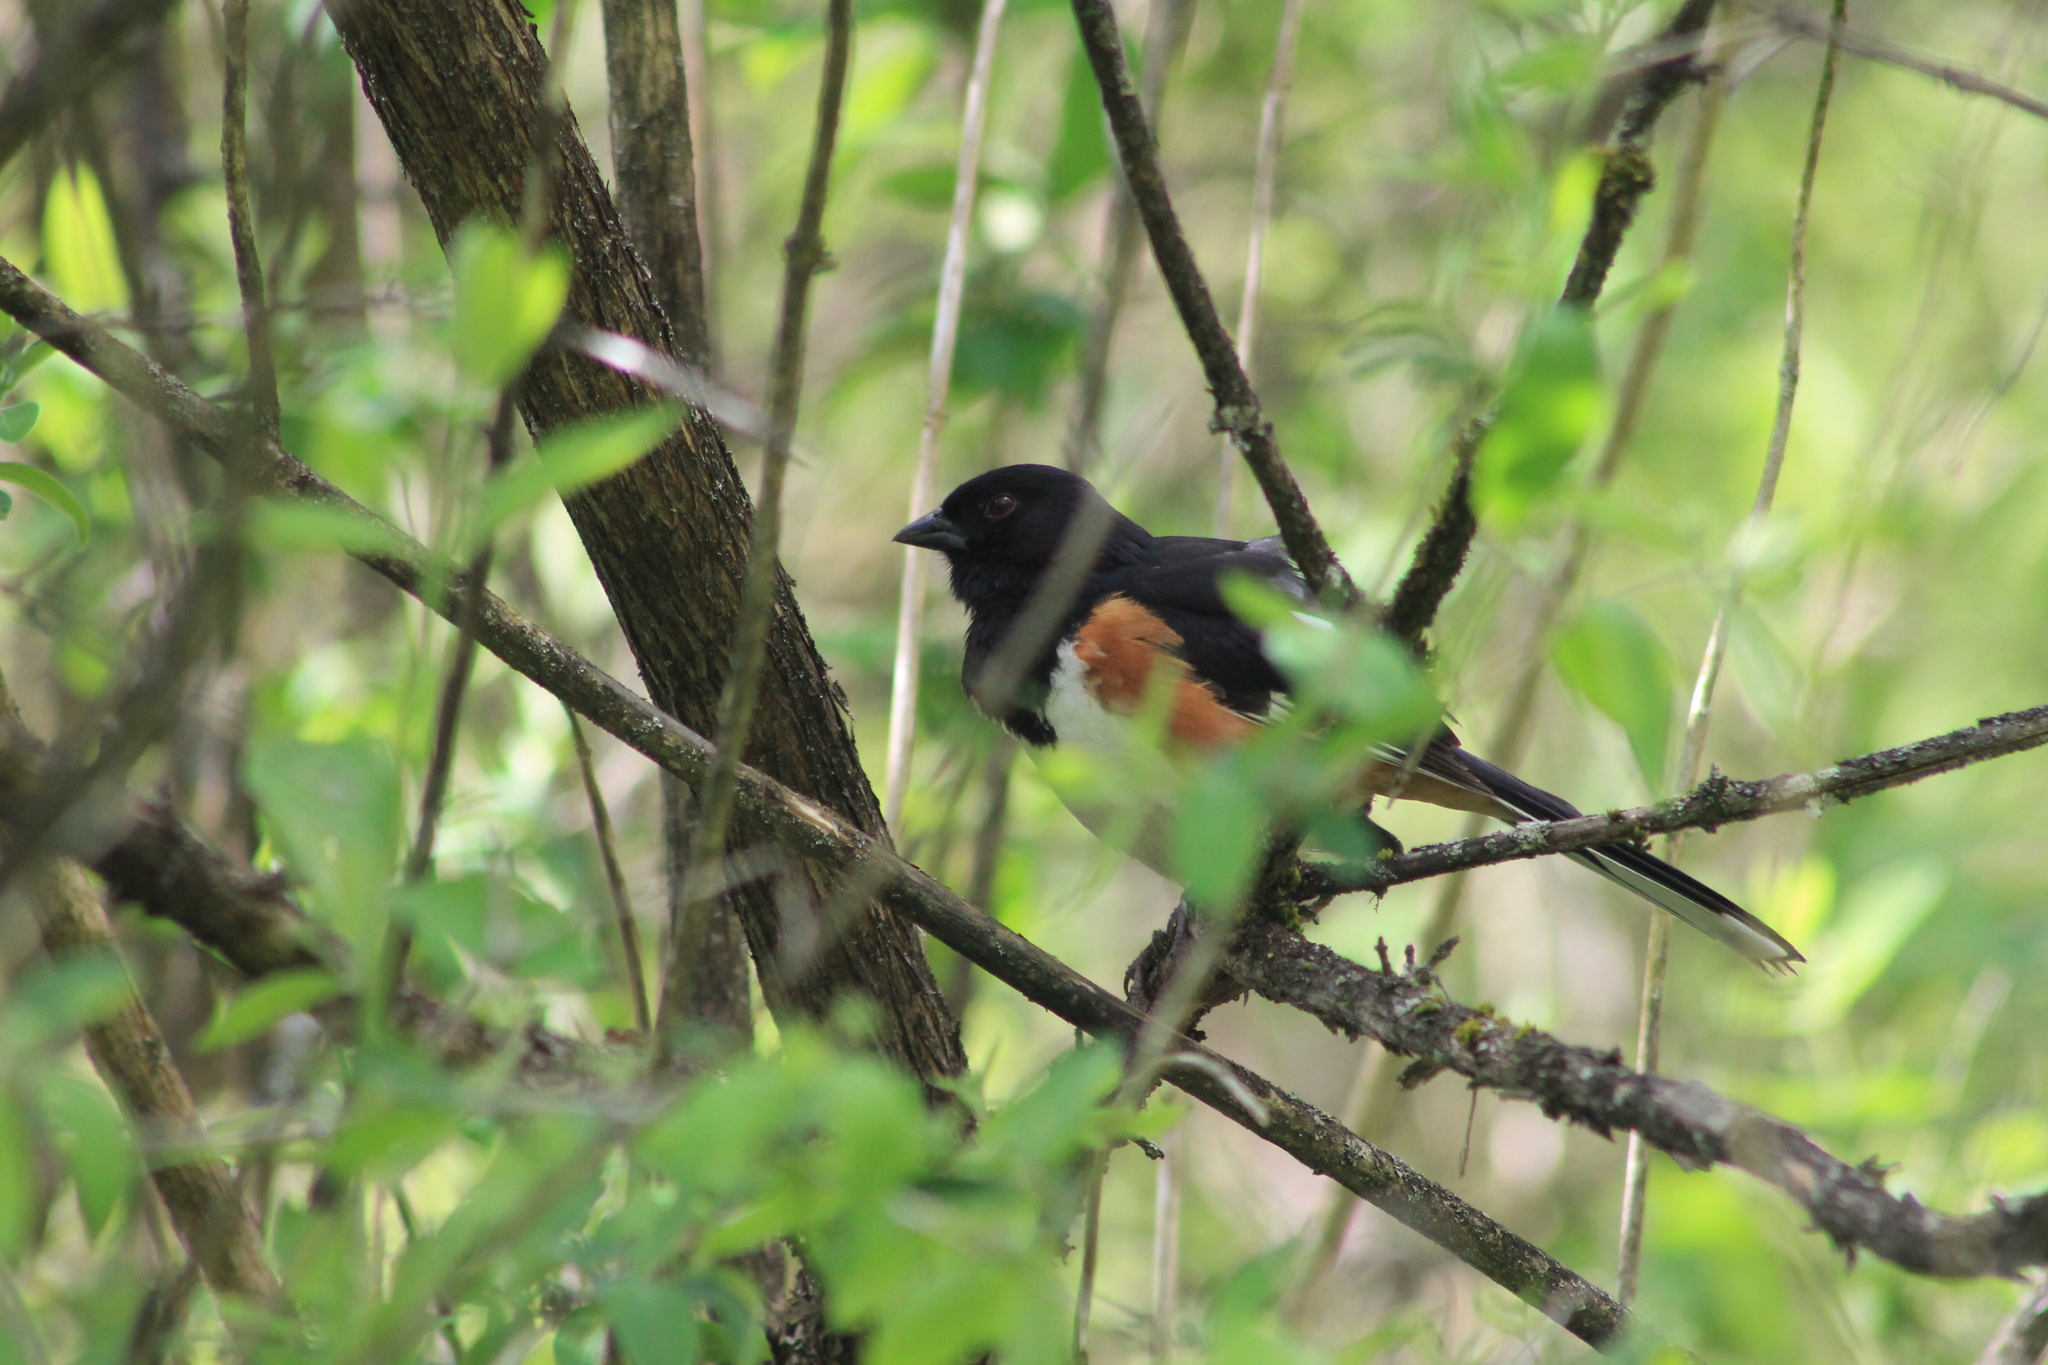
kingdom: Animalia
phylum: Chordata
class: Aves
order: Passeriformes
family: Passerellidae
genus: Pipilo
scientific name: Pipilo erythrophthalmus
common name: Eastern towhee
